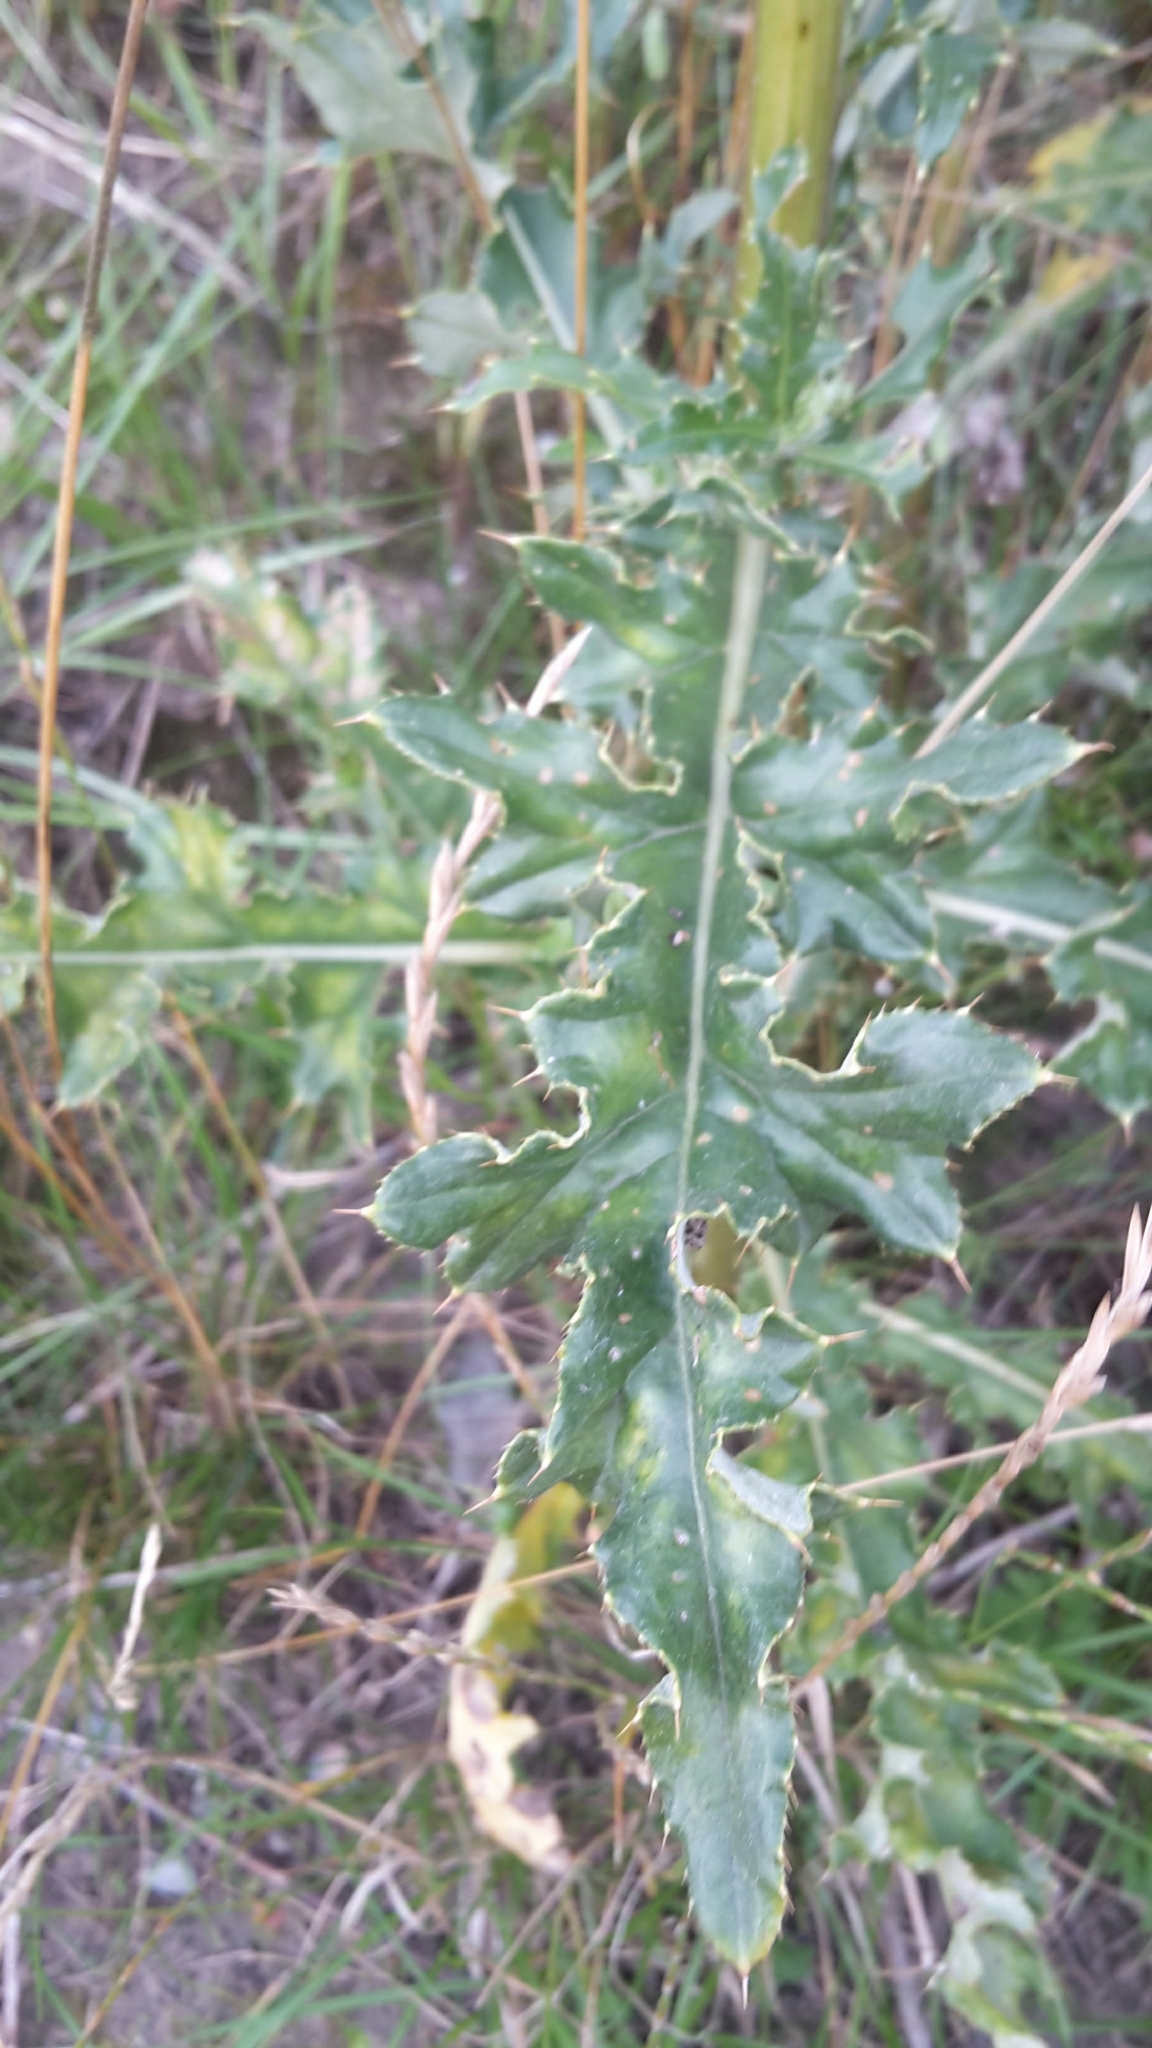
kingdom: Plantae
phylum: Tracheophyta
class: Magnoliopsida
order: Asterales
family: Asteraceae
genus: Cirsium
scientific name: Cirsium arvense
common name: Creeping thistle
